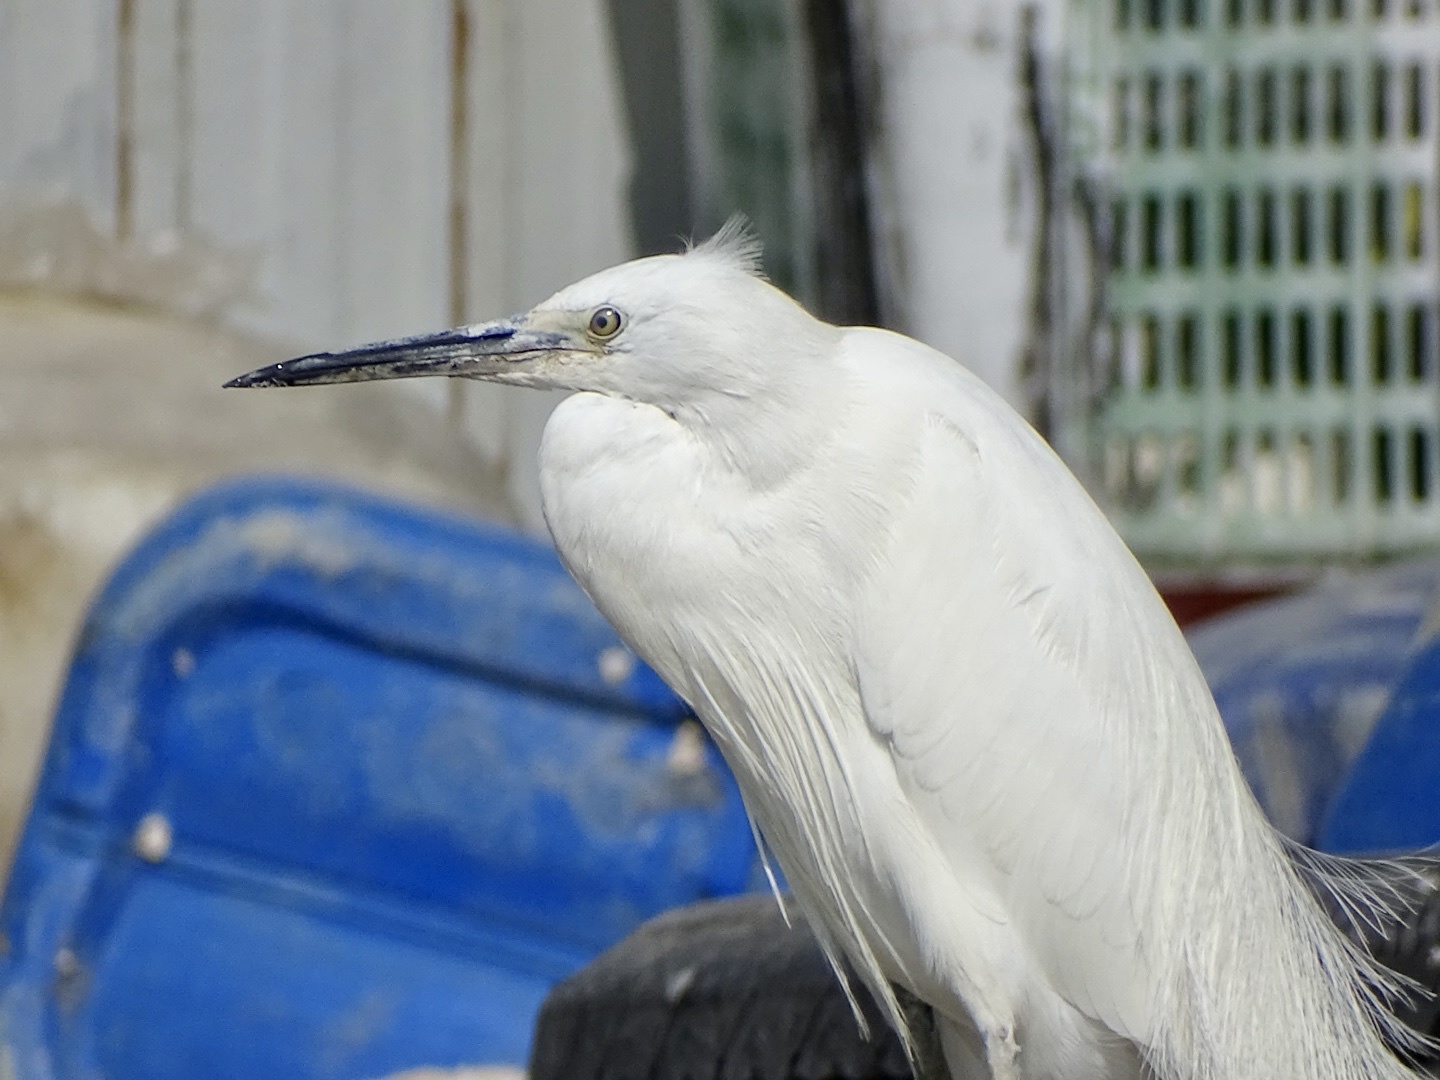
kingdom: Animalia
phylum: Chordata
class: Aves
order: Pelecaniformes
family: Ardeidae
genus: Egretta
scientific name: Egretta garzetta
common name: Little egret
